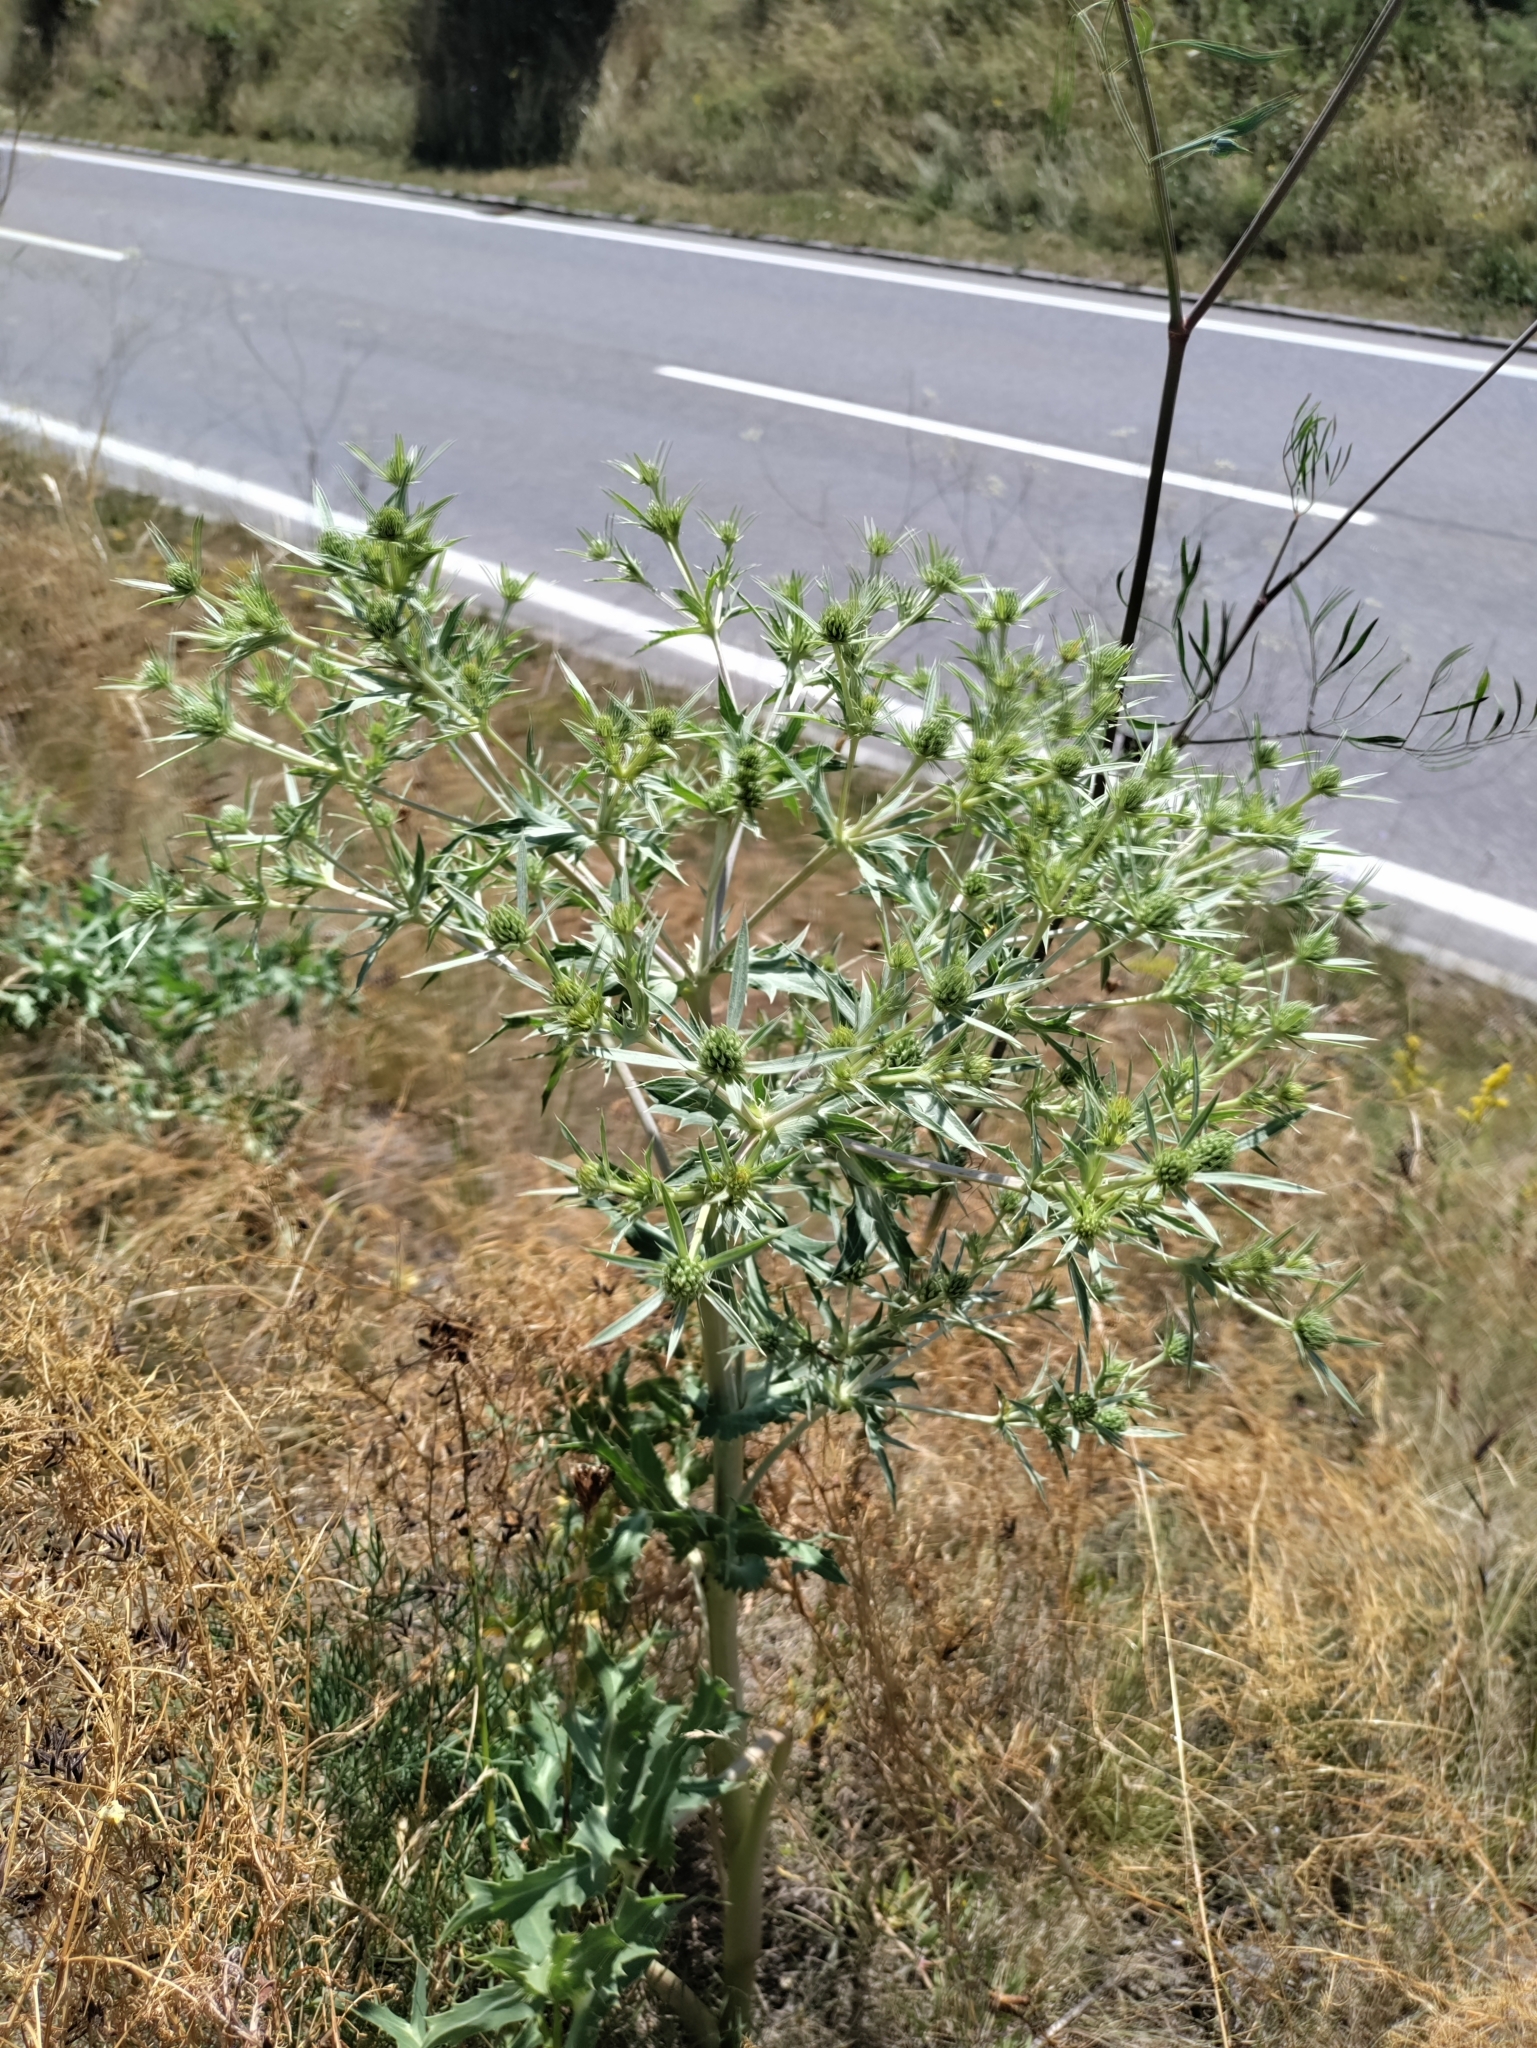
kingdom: Plantae
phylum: Tracheophyta
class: Magnoliopsida
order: Apiales
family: Apiaceae
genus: Eryngium
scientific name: Eryngium campestre
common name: Field eryngo
